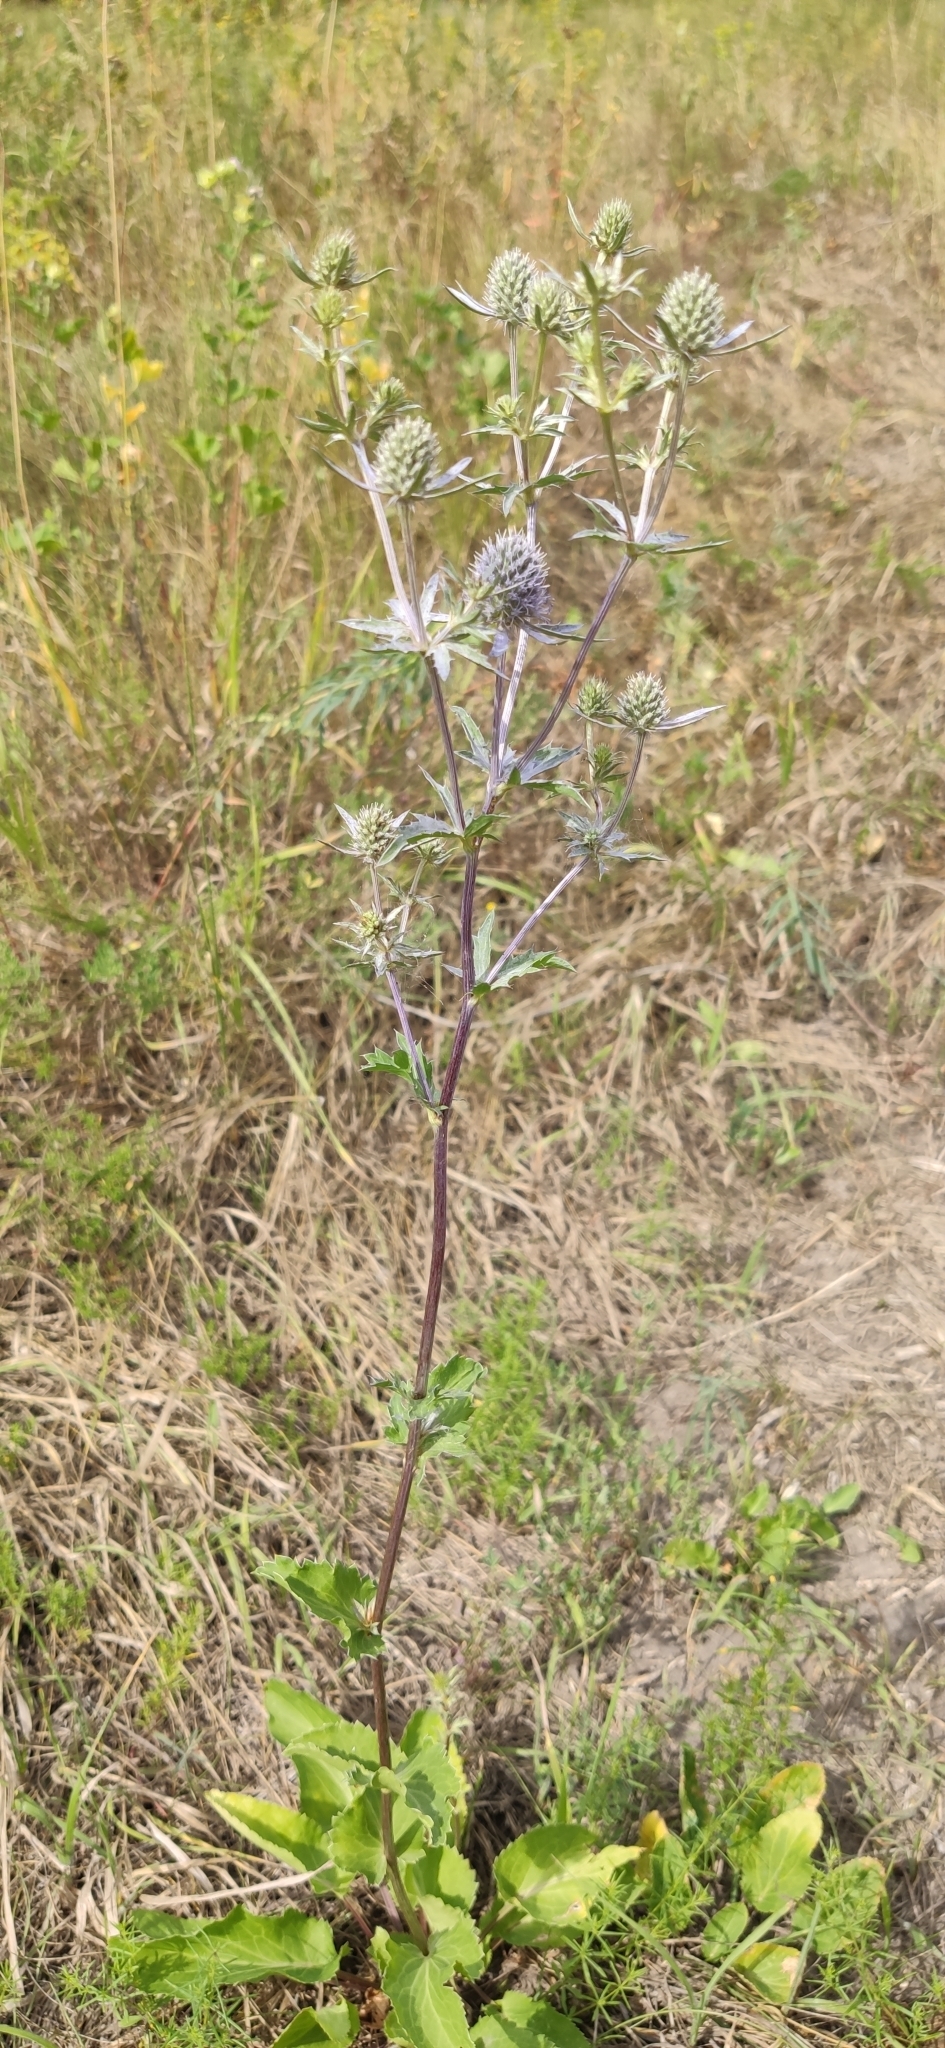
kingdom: Plantae
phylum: Tracheophyta
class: Magnoliopsida
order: Apiales
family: Apiaceae
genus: Eryngium
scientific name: Eryngium planum
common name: Blue eryngo
